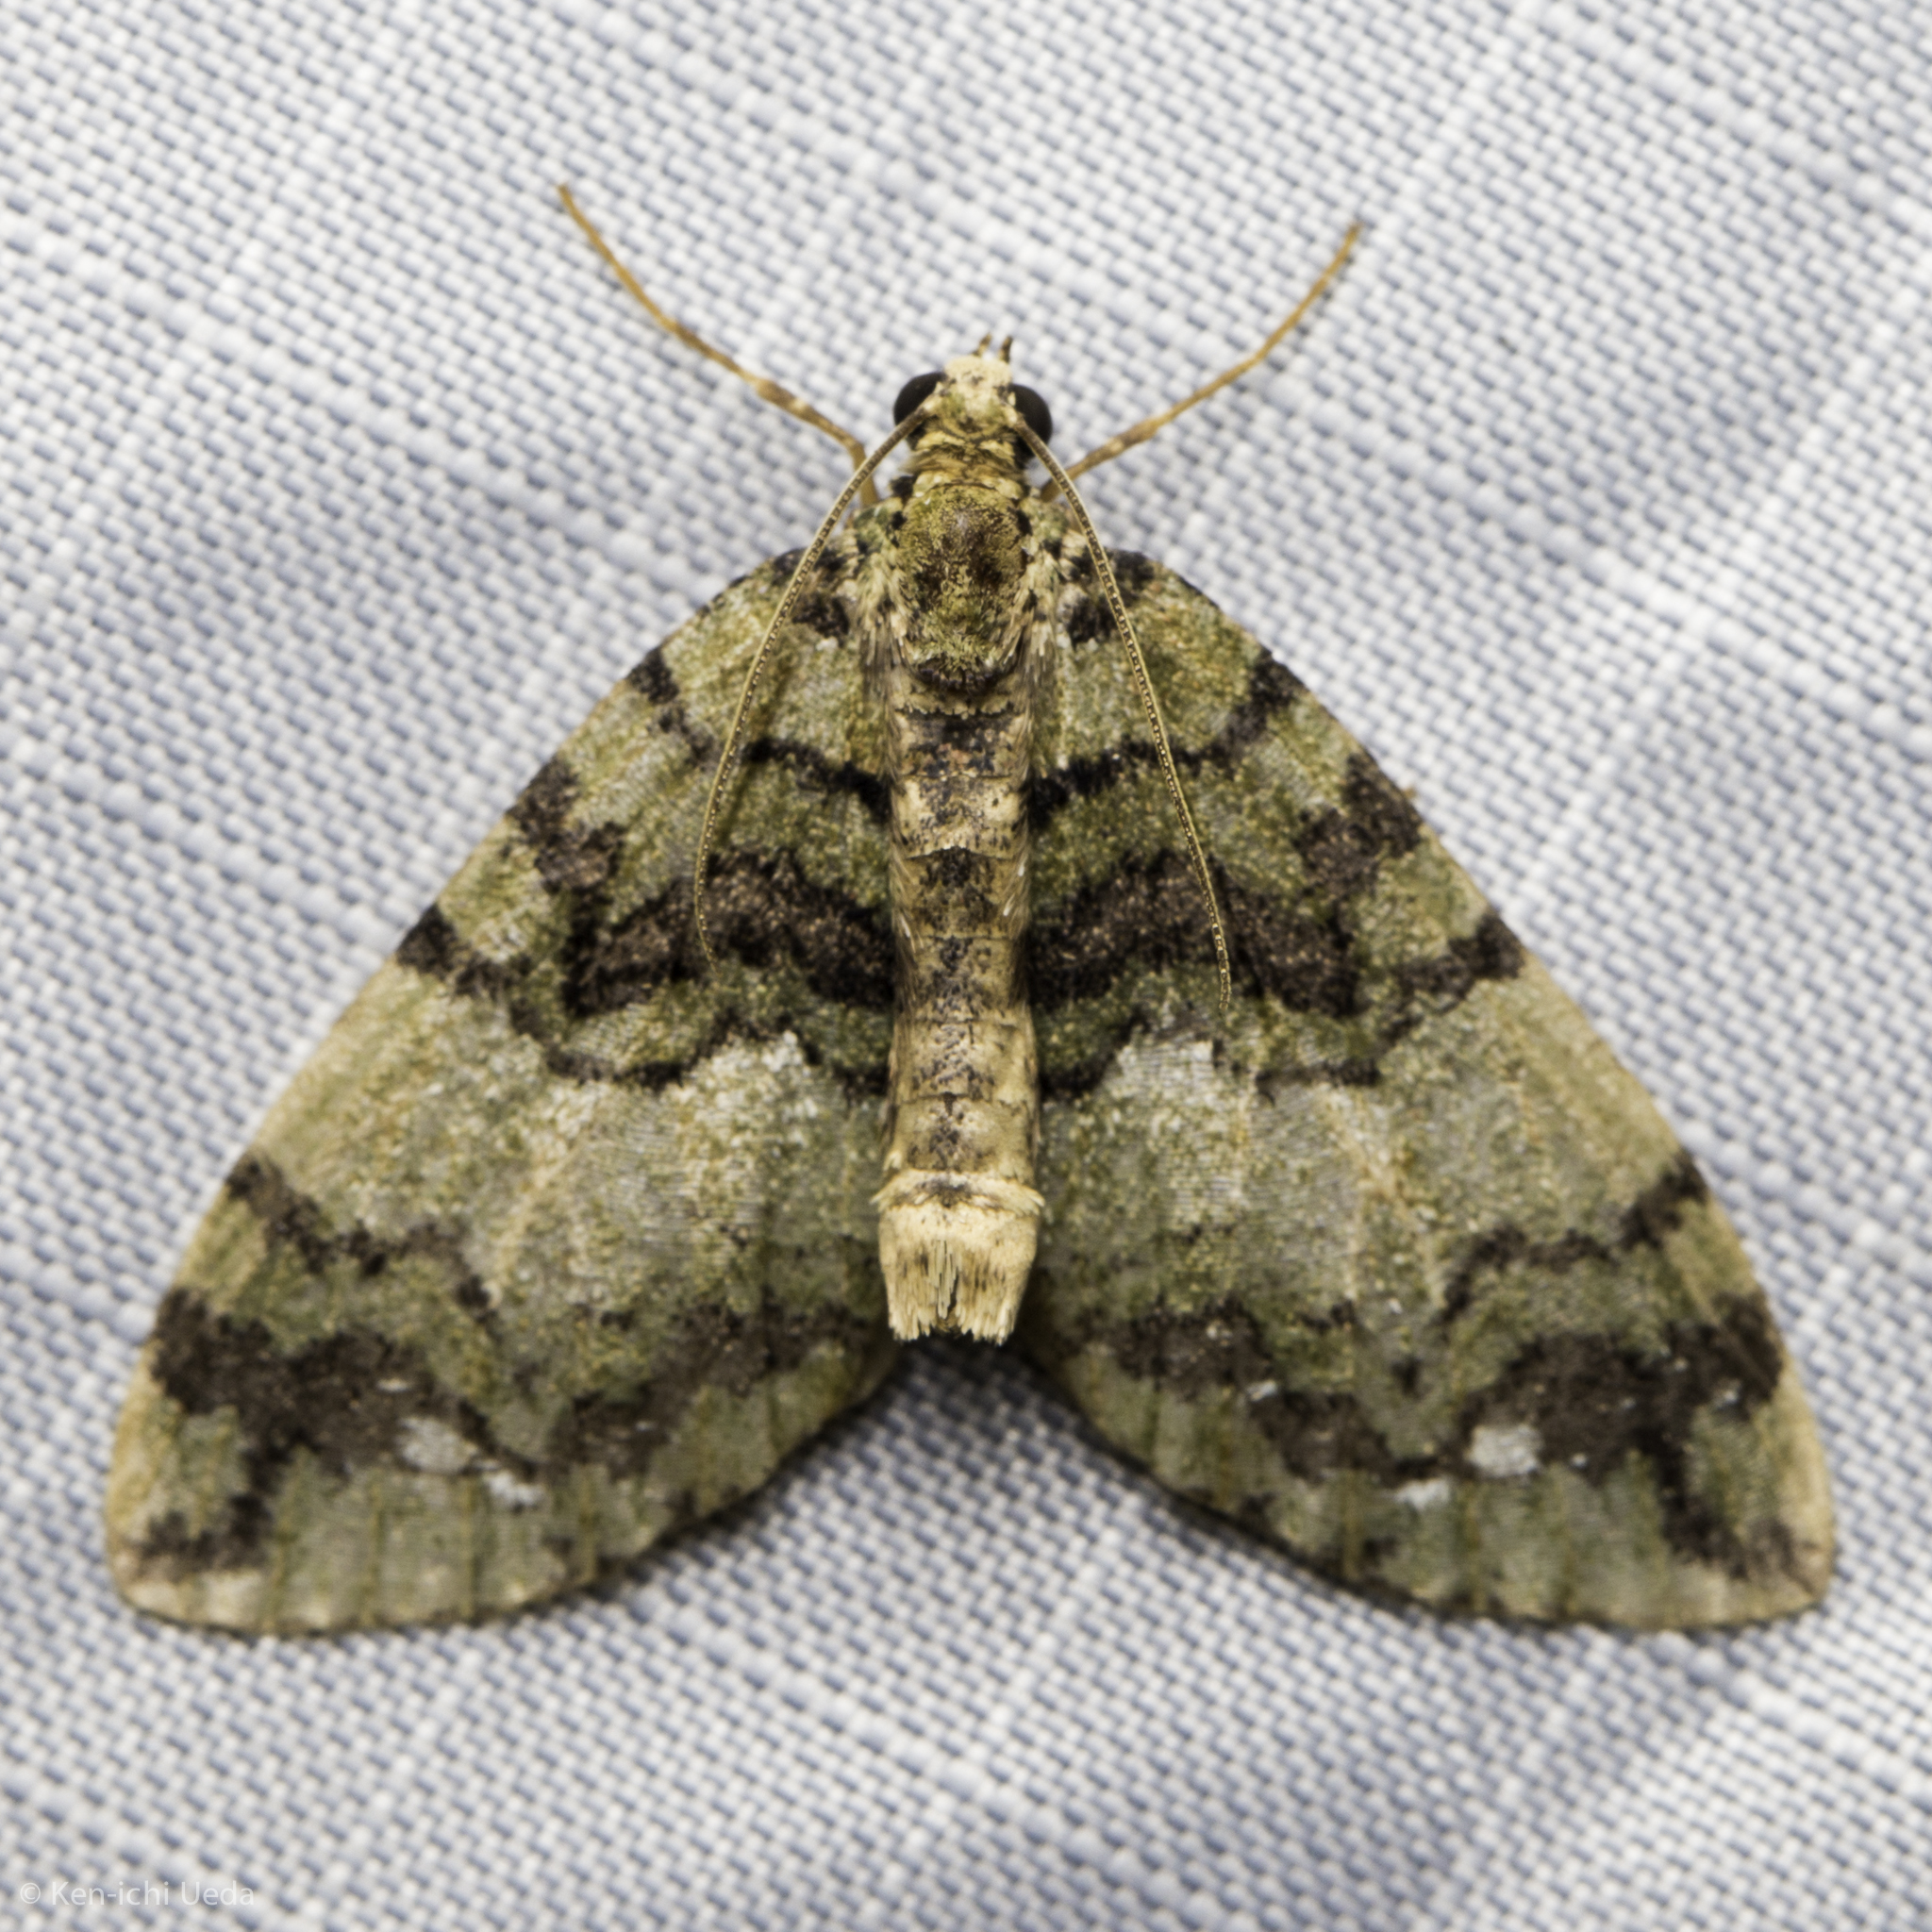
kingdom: Animalia
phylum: Arthropoda
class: Insecta
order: Lepidoptera
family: Geometridae
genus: Hydriomena
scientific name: Hydriomena albifasciata
